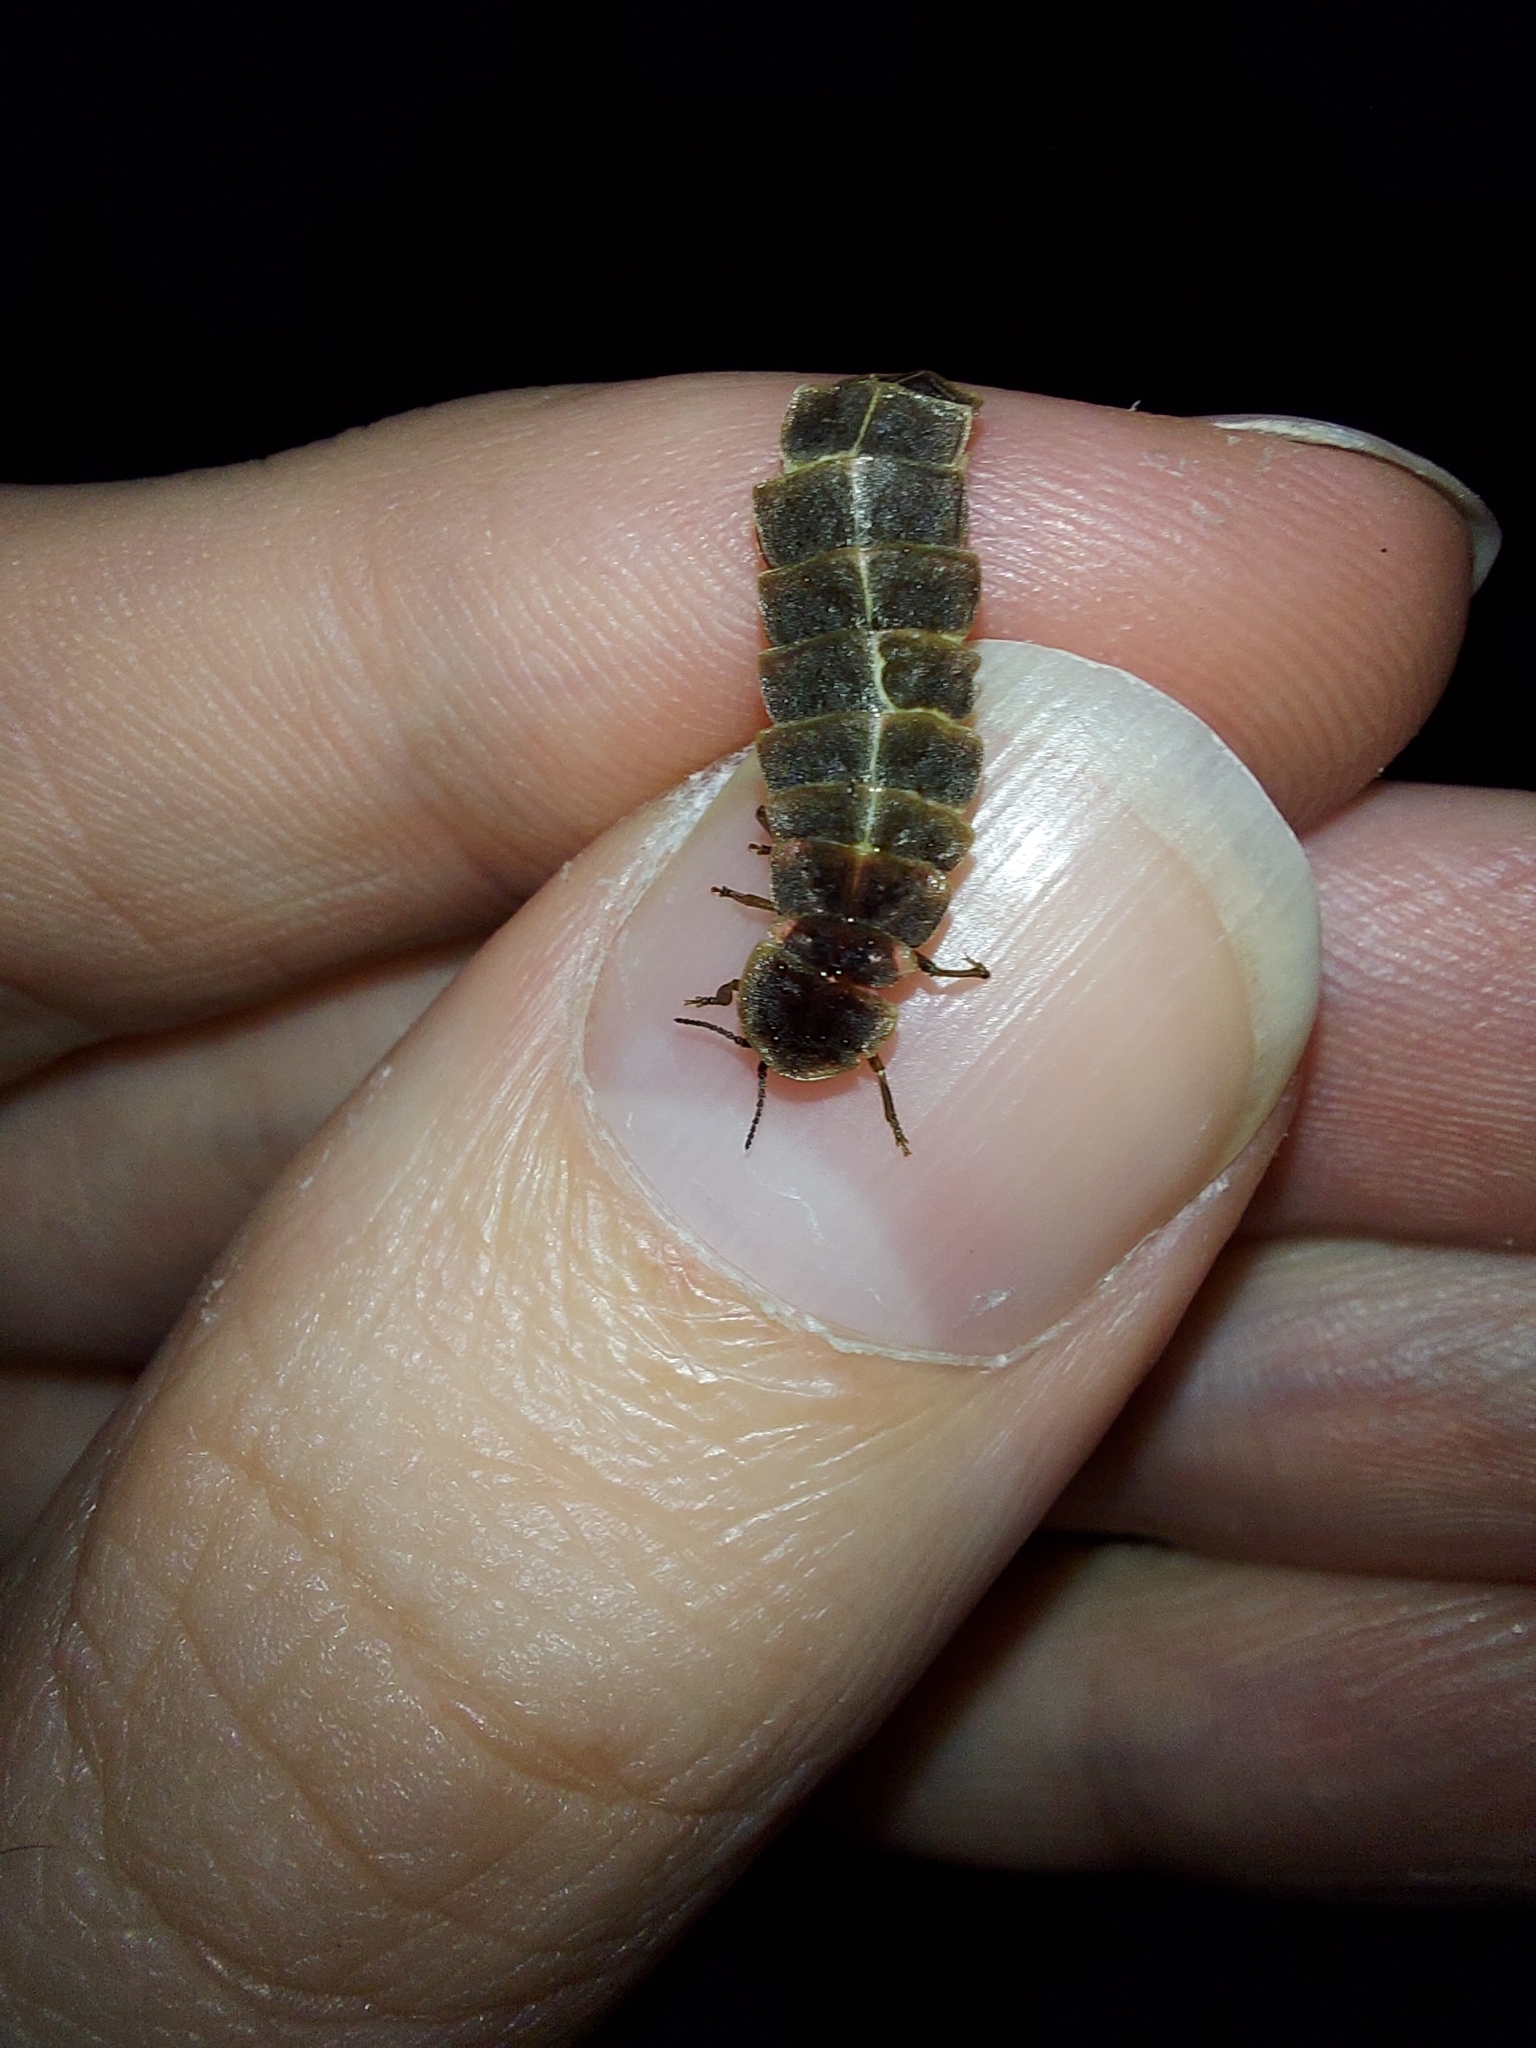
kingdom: Animalia
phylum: Arthropoda
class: Insecta
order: Coleoptera
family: Lampyridae
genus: Lampyris
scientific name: Lampyris noctiluca
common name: Glow-worm
